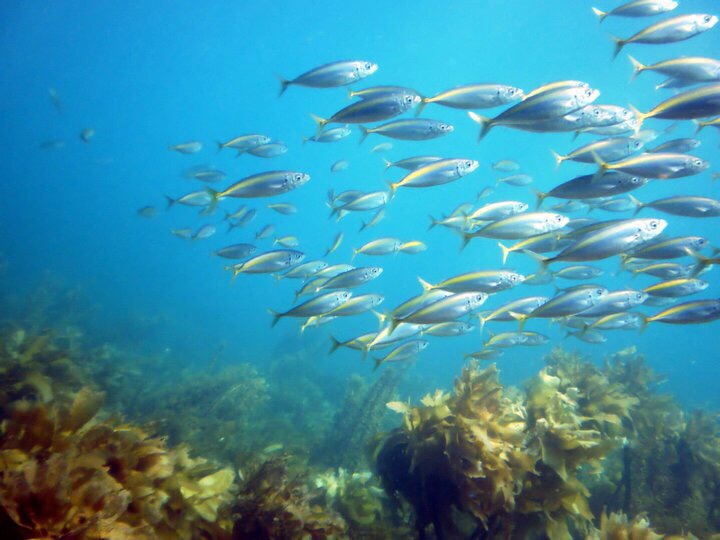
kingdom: Animalia
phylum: Chordata
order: Perciformes
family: Carangidae
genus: Decapterus
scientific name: Decapterus koheru
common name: Koheru
